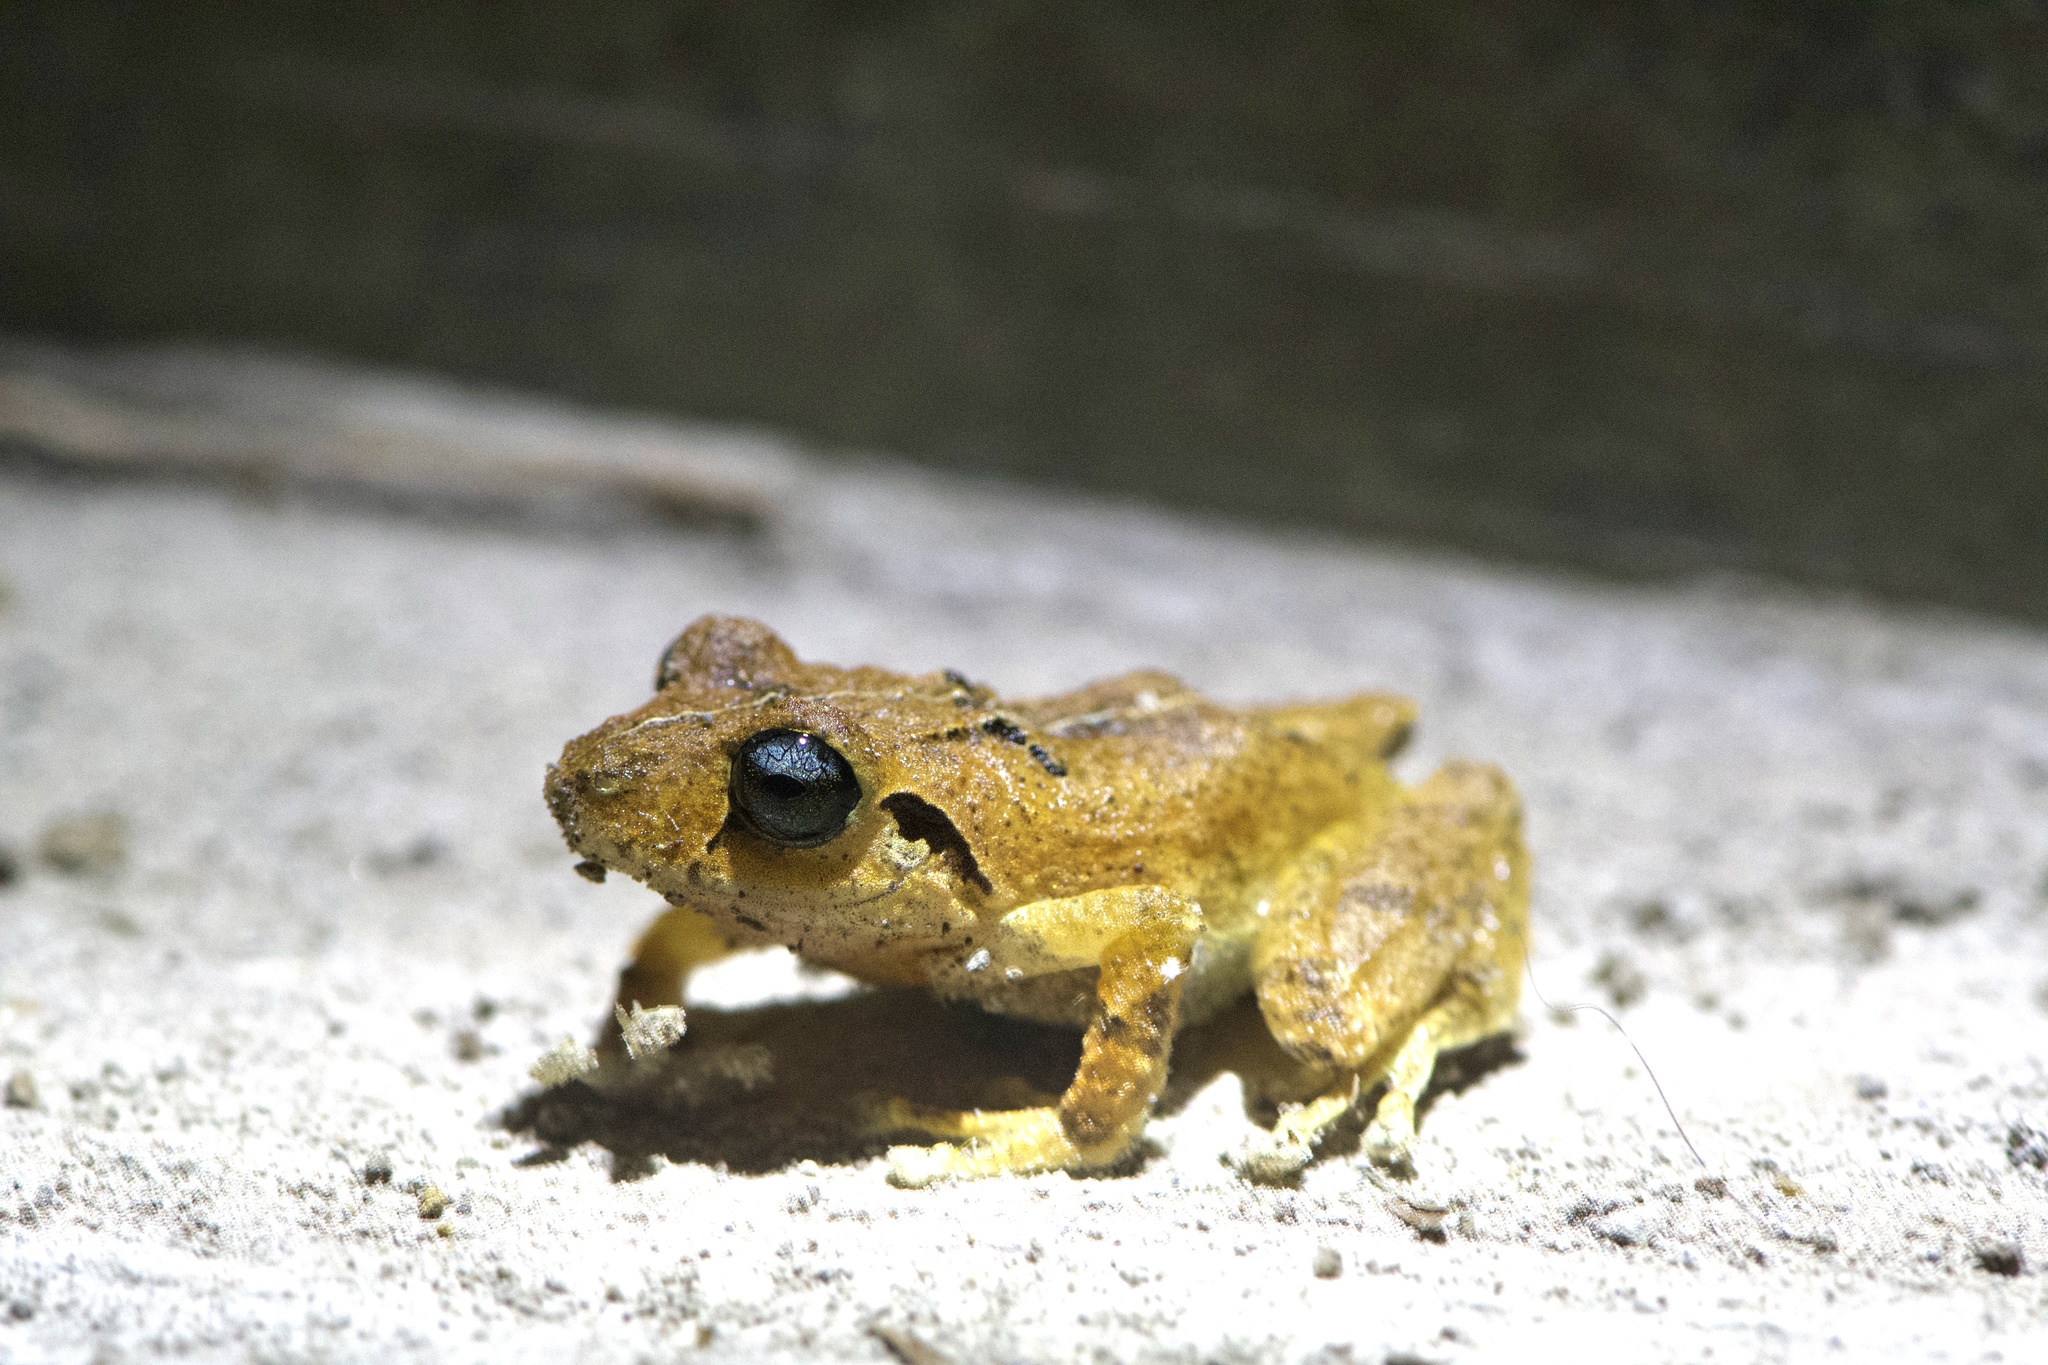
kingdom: Animalia
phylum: Chordata
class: Amphibia
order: Anura
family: Craugastoridae
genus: Pristimantis
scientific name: Pristimantis taeniatus
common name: Banded robber frog
